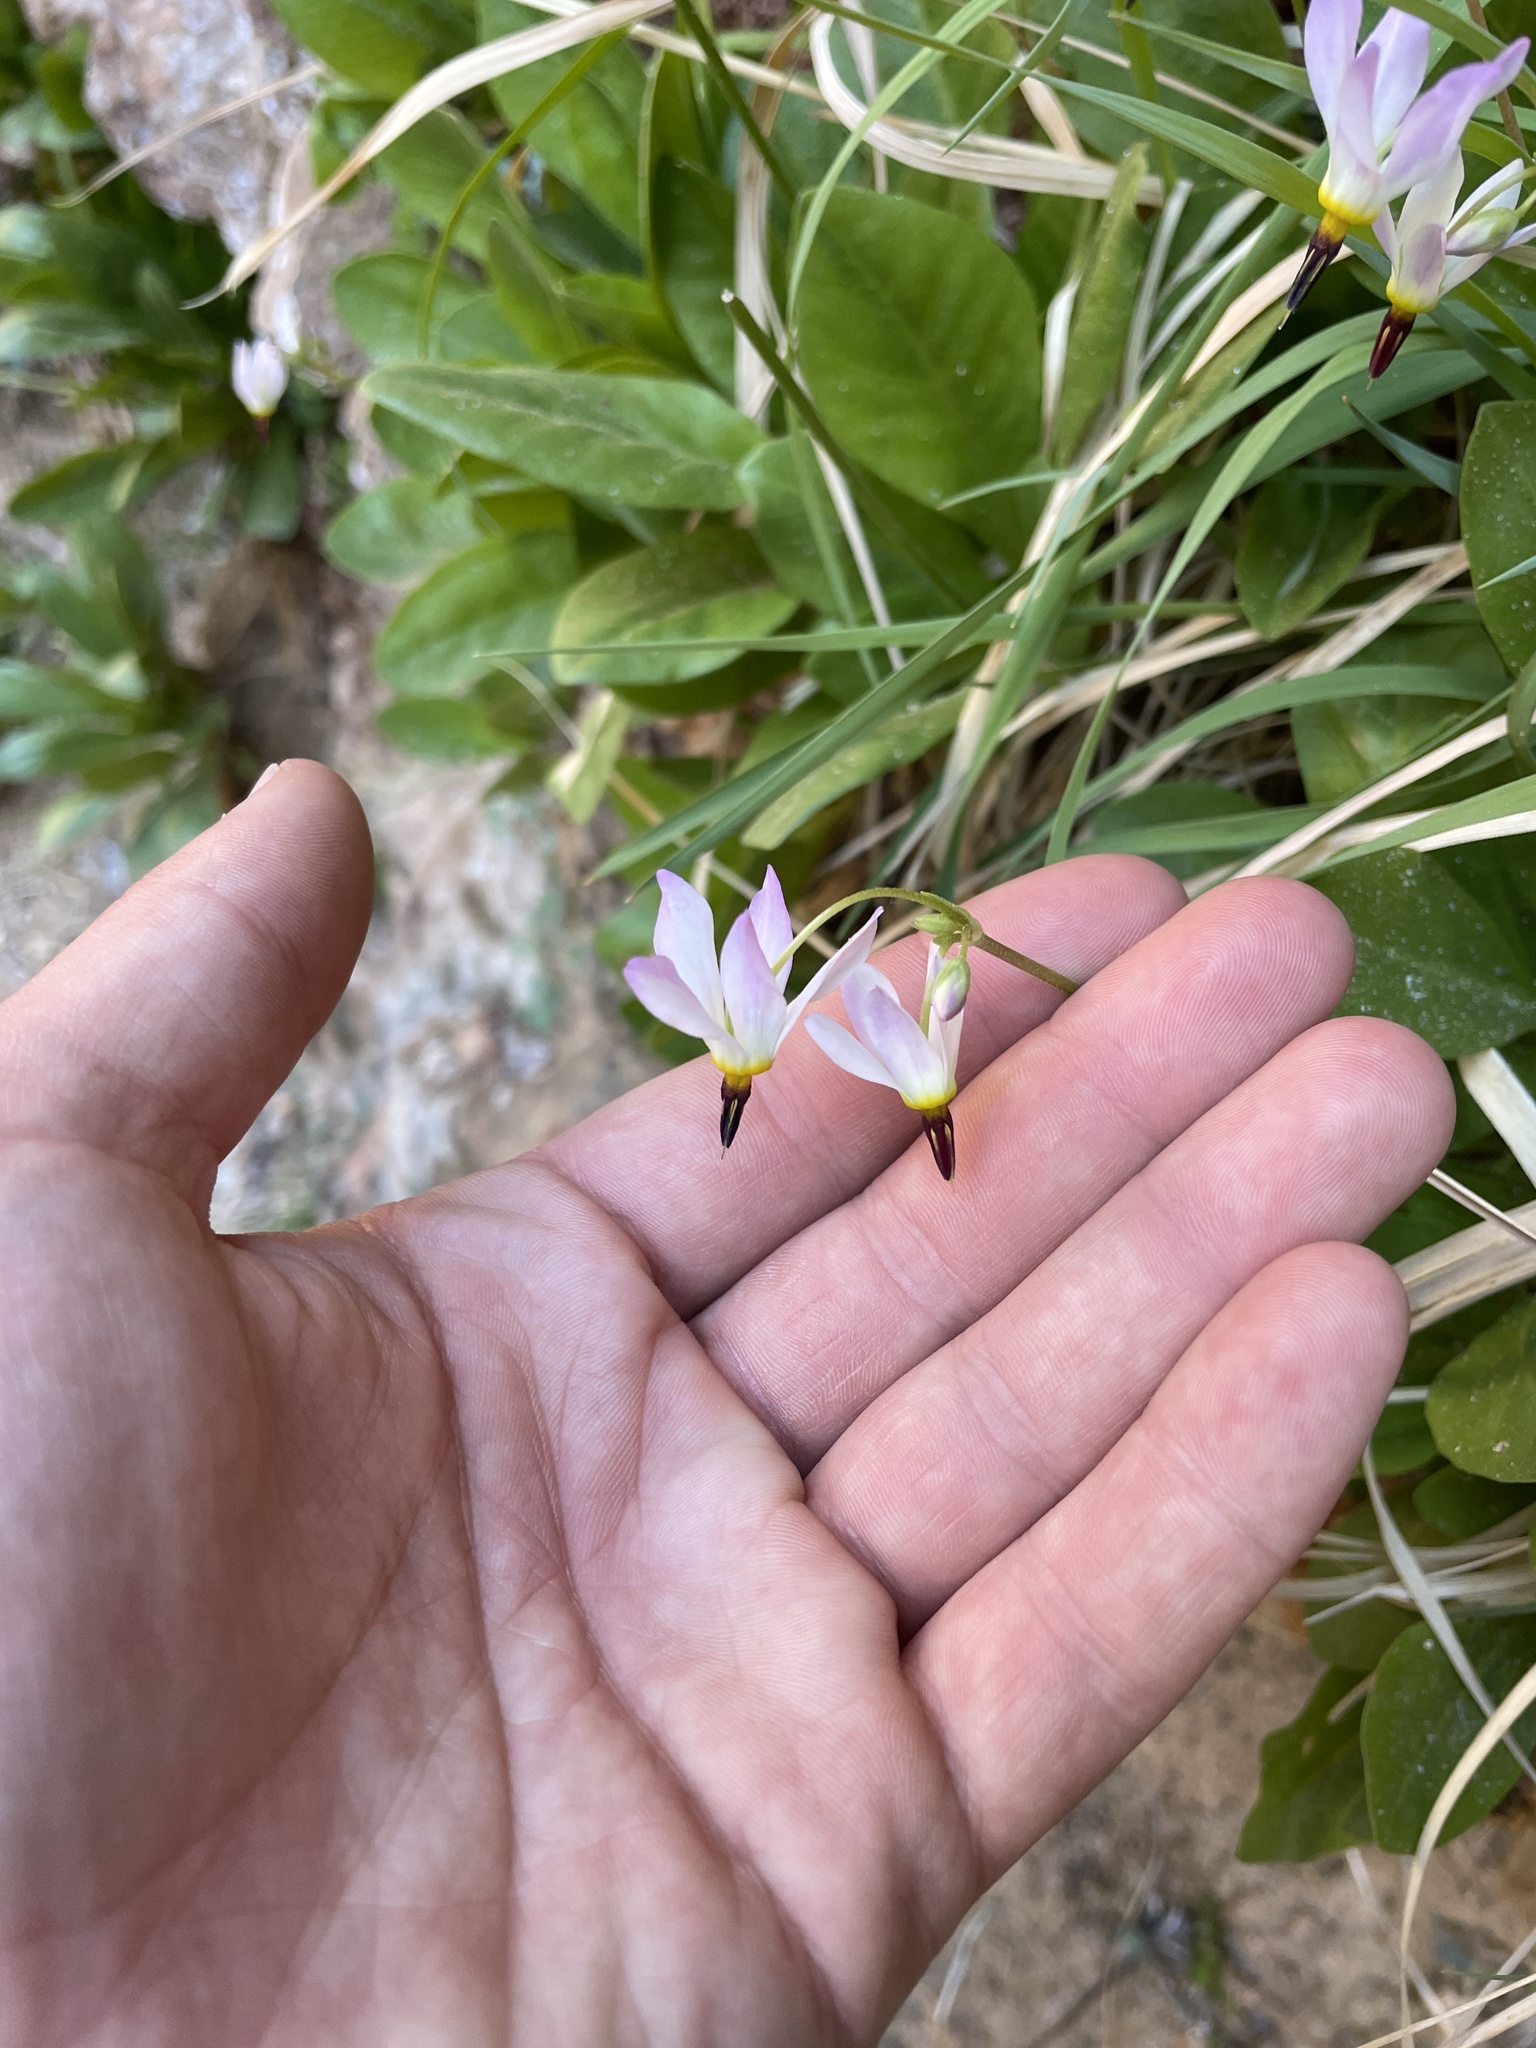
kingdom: Plantae
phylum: Tracheophyta
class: Magnoliopsida
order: Ericales
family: Primulaceae
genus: Dodecatheon
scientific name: Dodecatheon pulchellum
